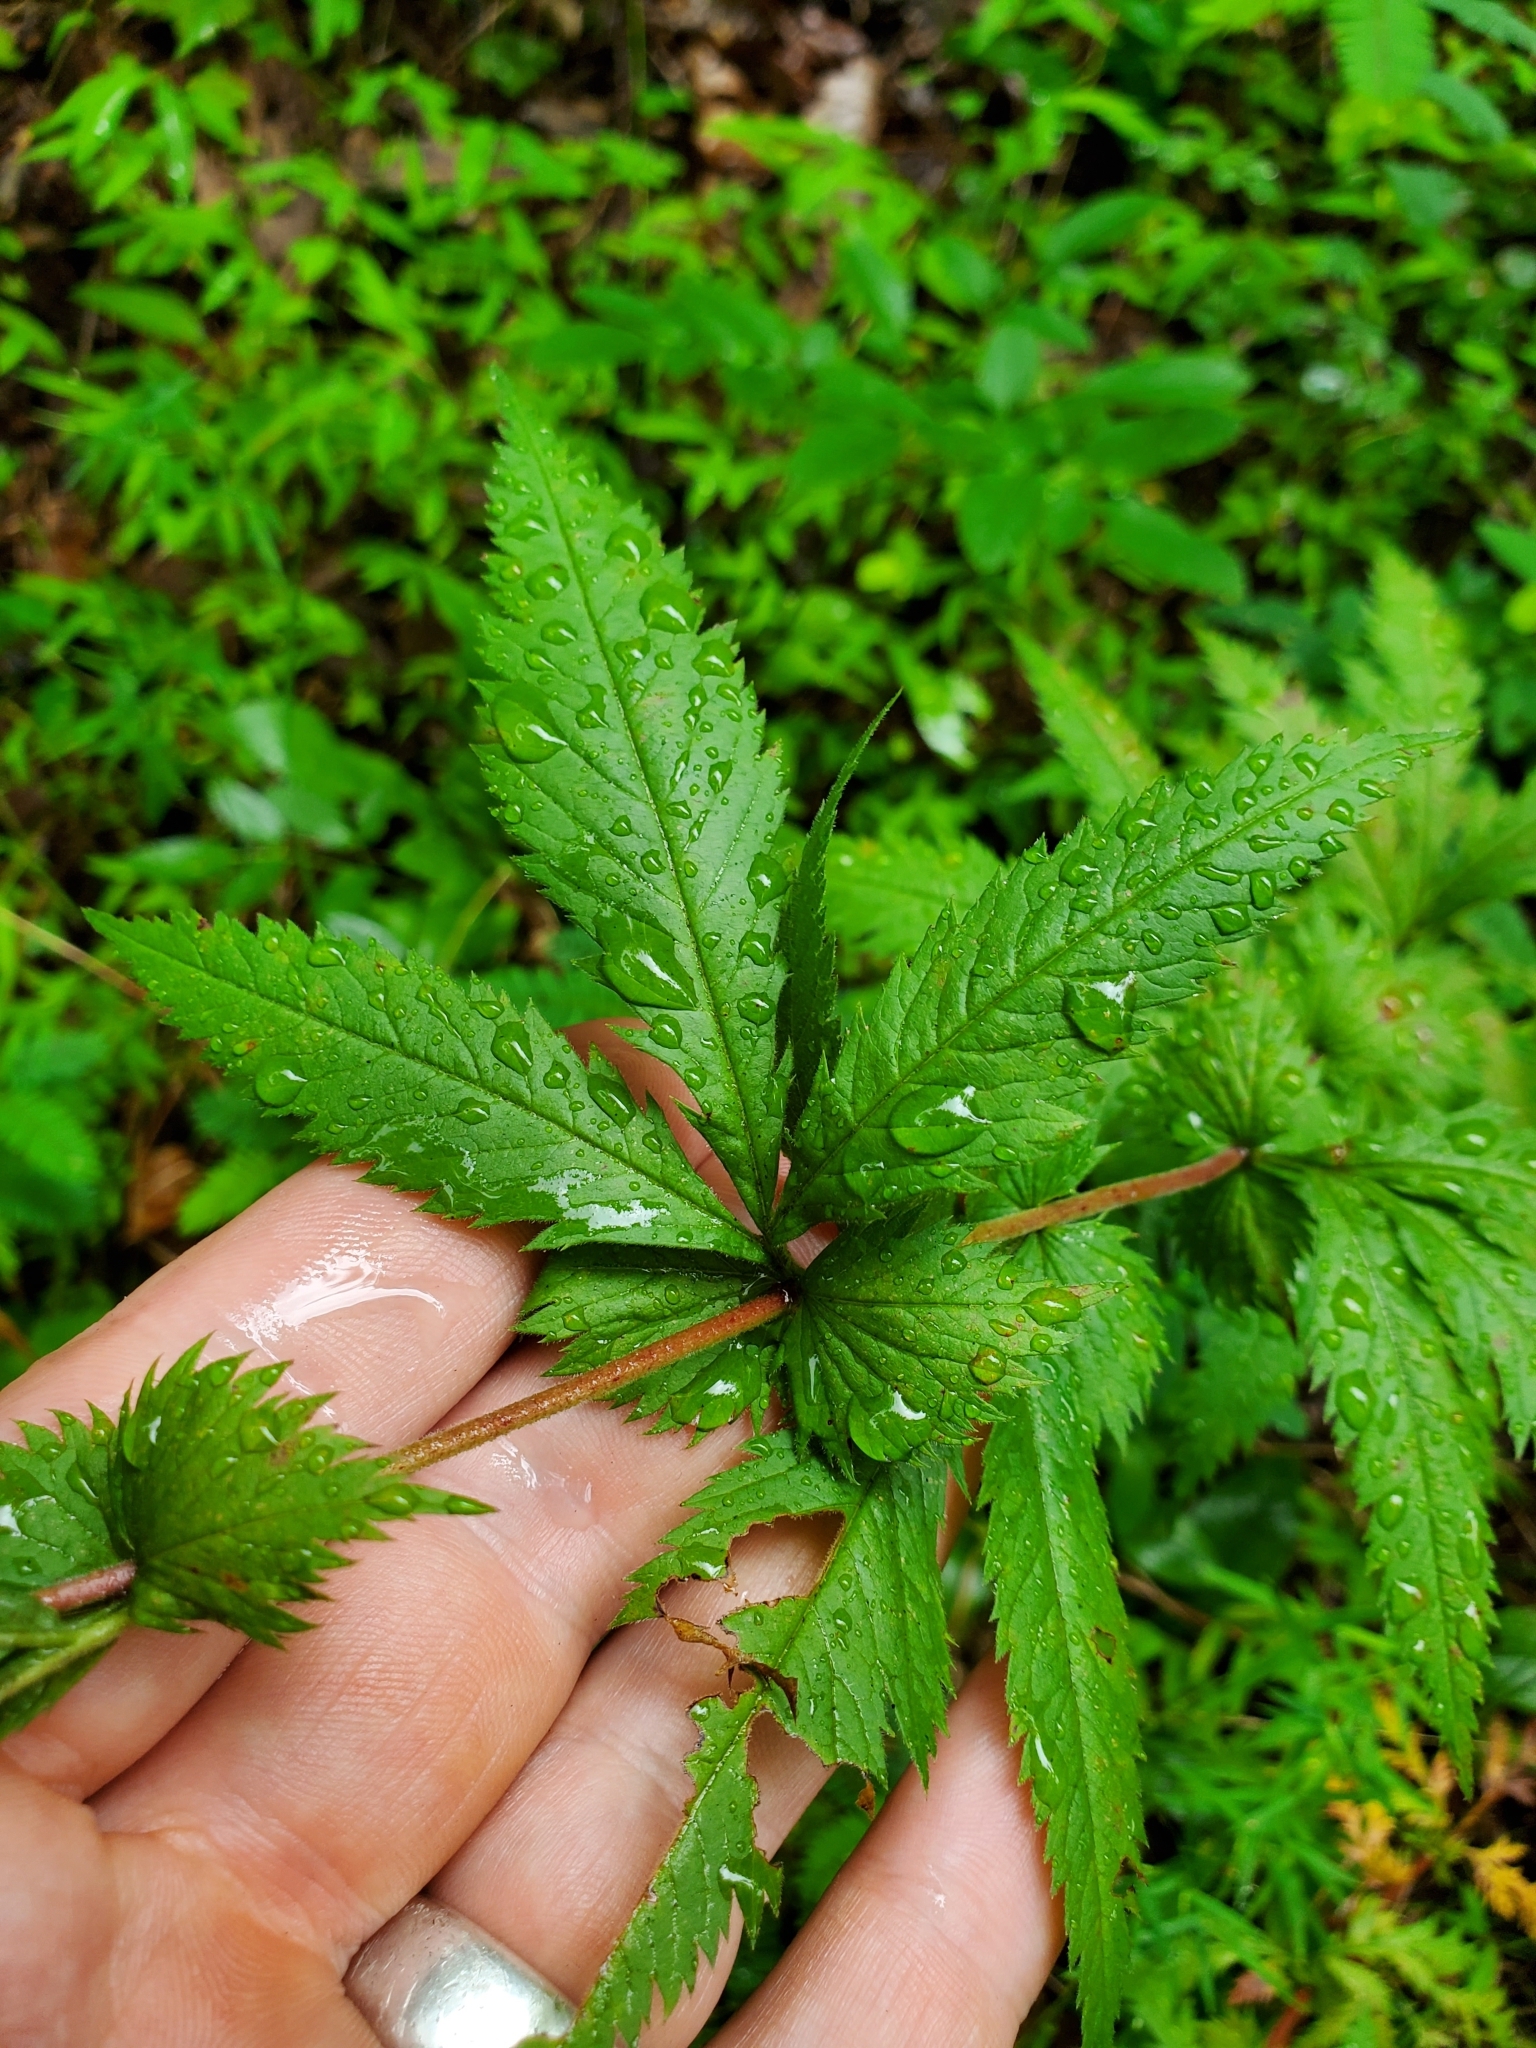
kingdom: Plantae
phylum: Tracheophyta
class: Magnoliopsida
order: Rosales
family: Rosaceae
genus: Gillenia
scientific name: Gillenia stipulata
